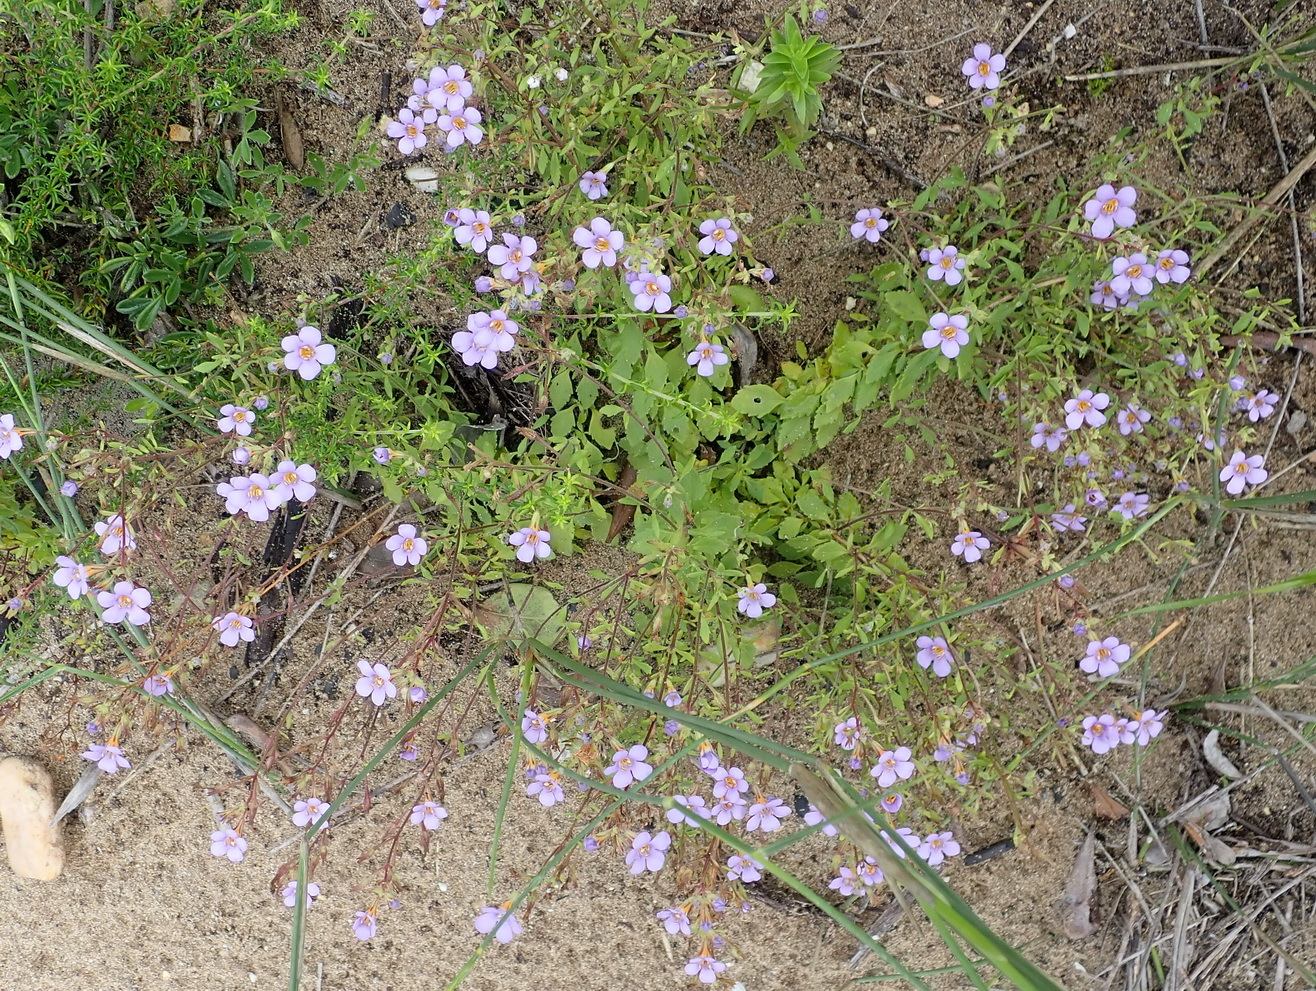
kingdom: Plantae
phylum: Tracheophyta
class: Magnoliopsida
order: Lamiales
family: Scrophulariaceae
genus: Chaenostoma
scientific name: Chaenostoma campanulatum
